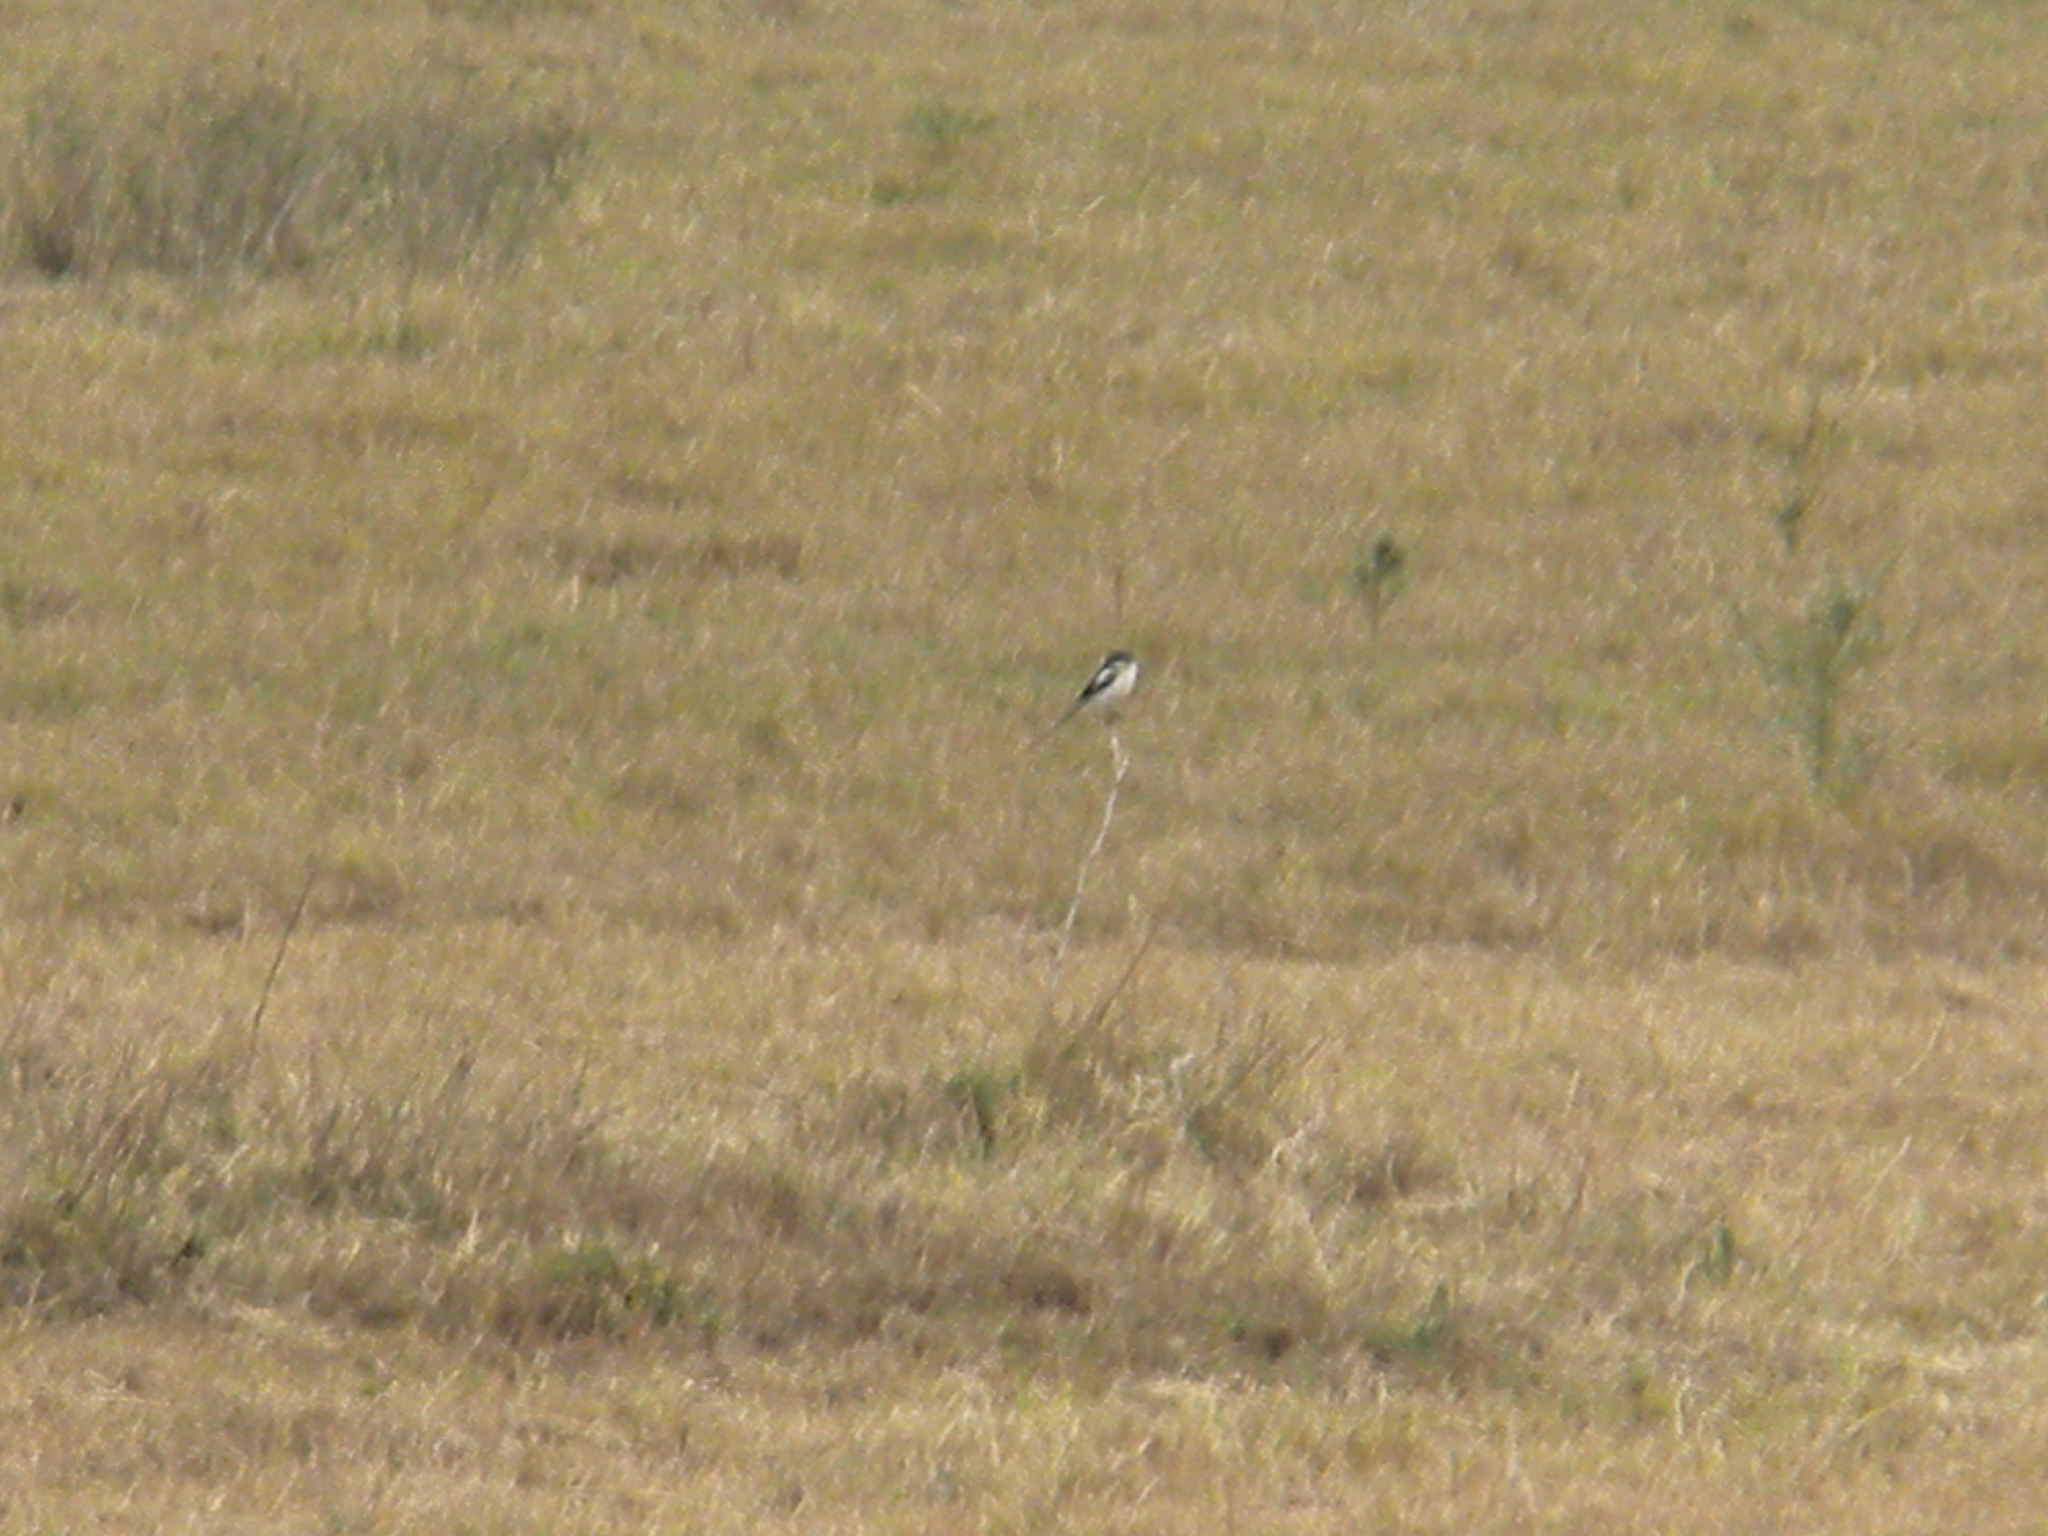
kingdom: Animalia
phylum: Chordata
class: Aves
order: Passeriformes
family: Laniidae
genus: Lanius
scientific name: Lanius humeralis
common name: Northern fiscal
